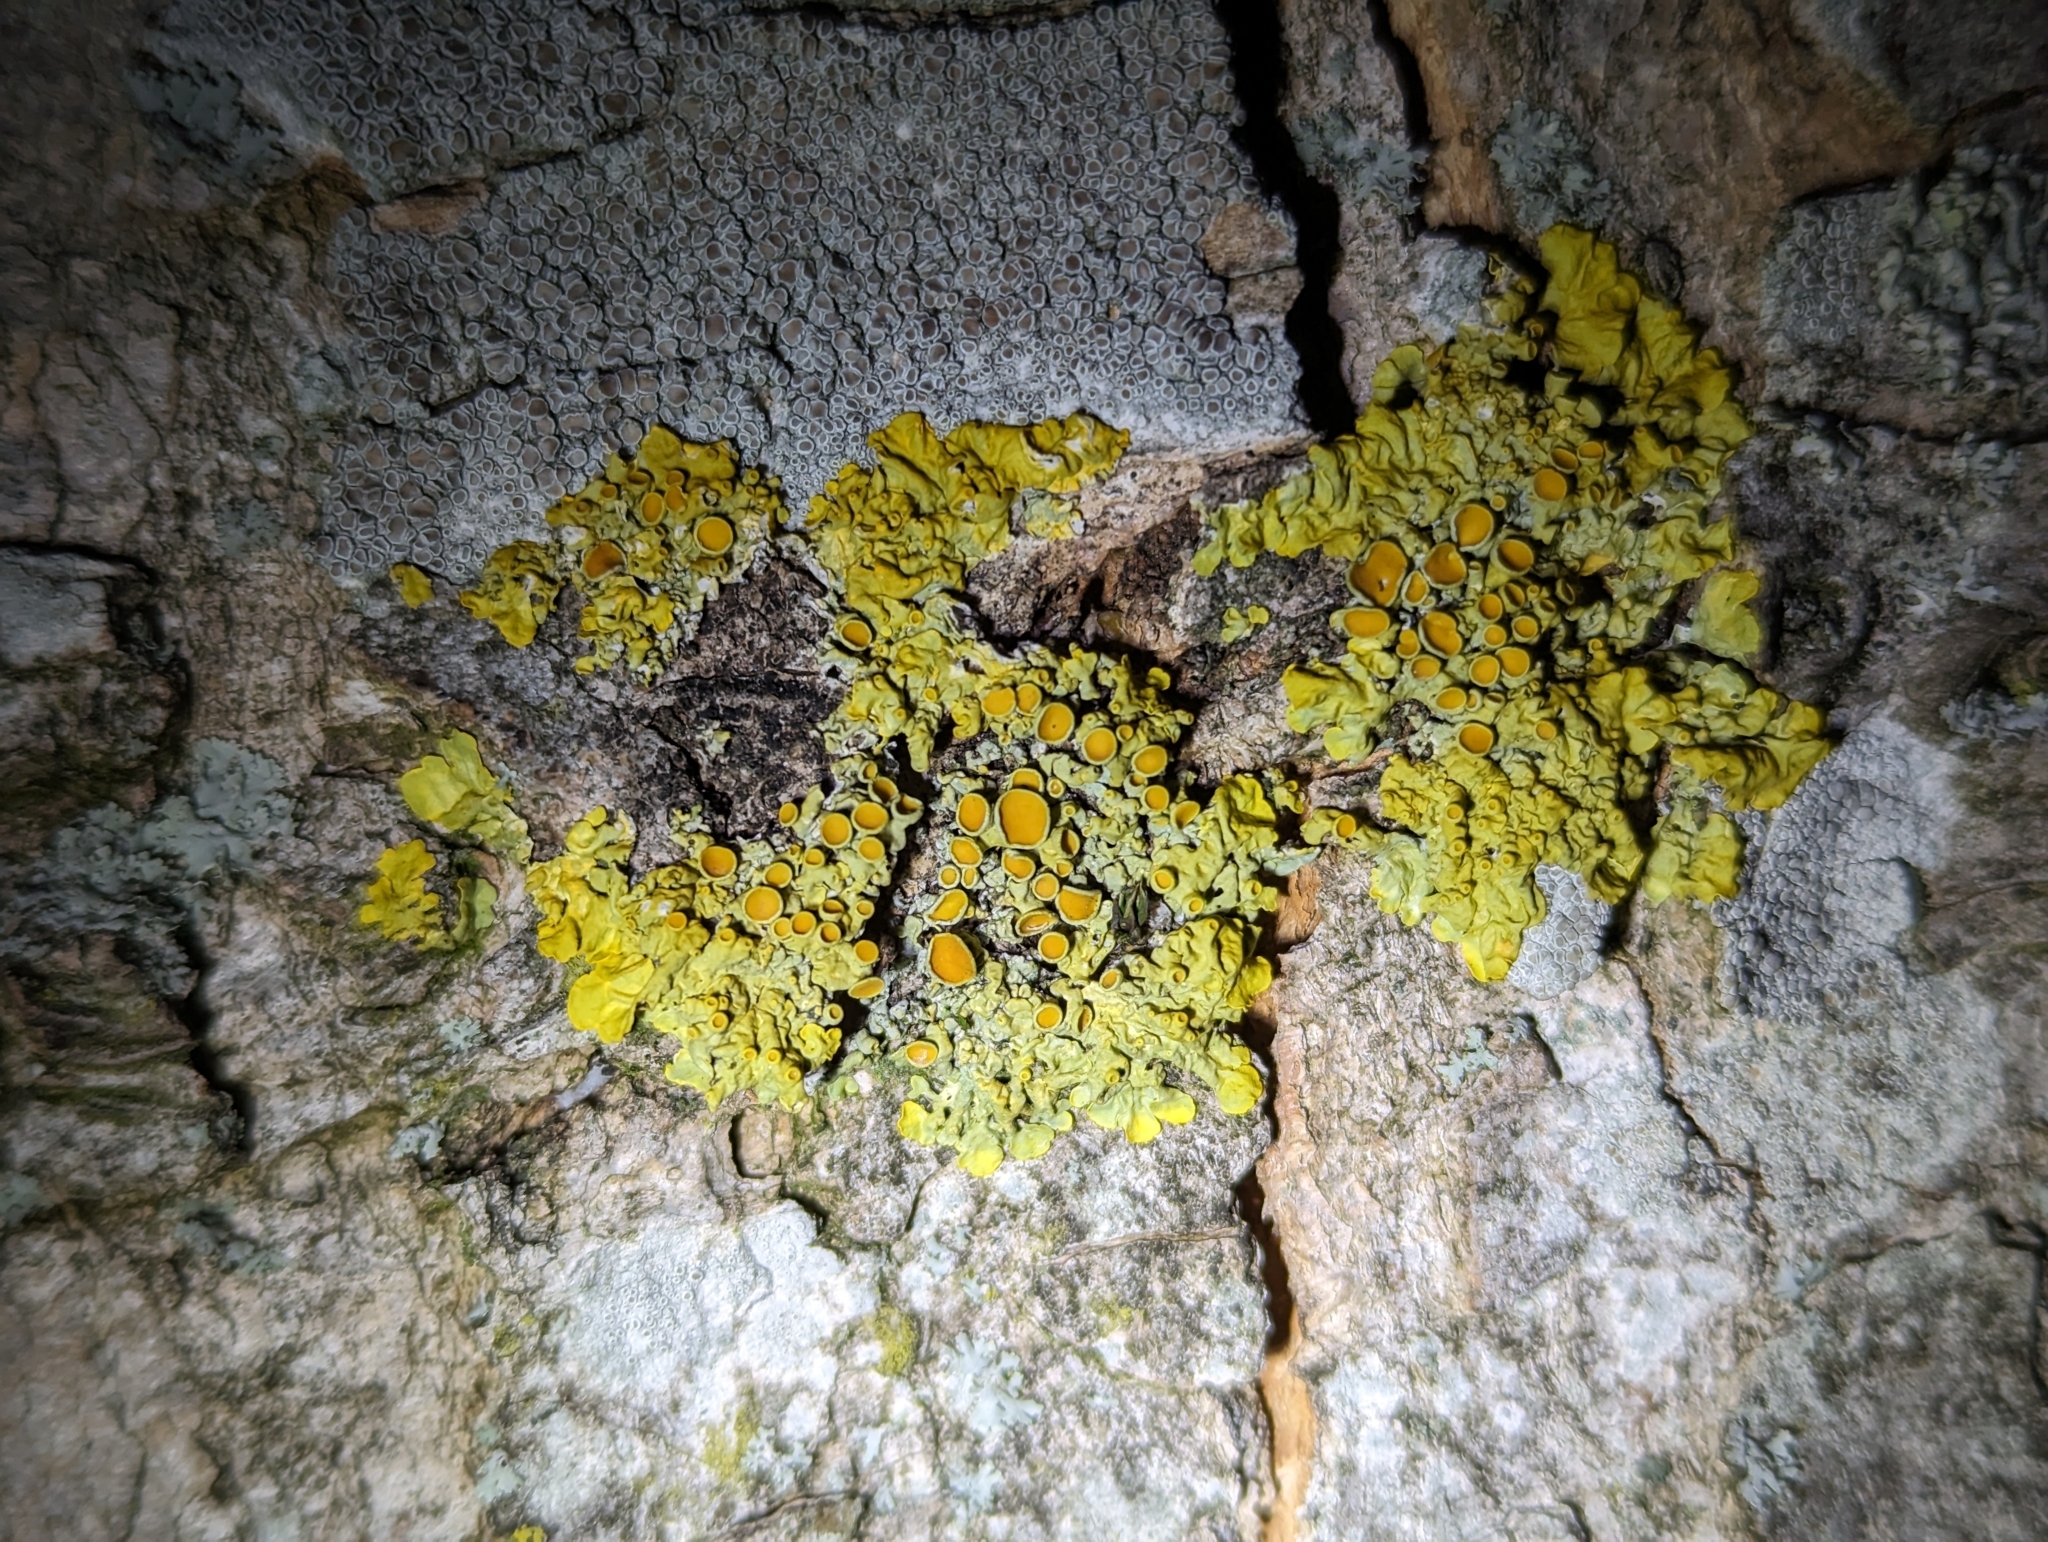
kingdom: Fungi
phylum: Ascomycota
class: Lecanoromycetes
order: Teloschistales
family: Teloschistaceae
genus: Xanthoria
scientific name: Xanthoria parietina
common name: Common orange lichen
